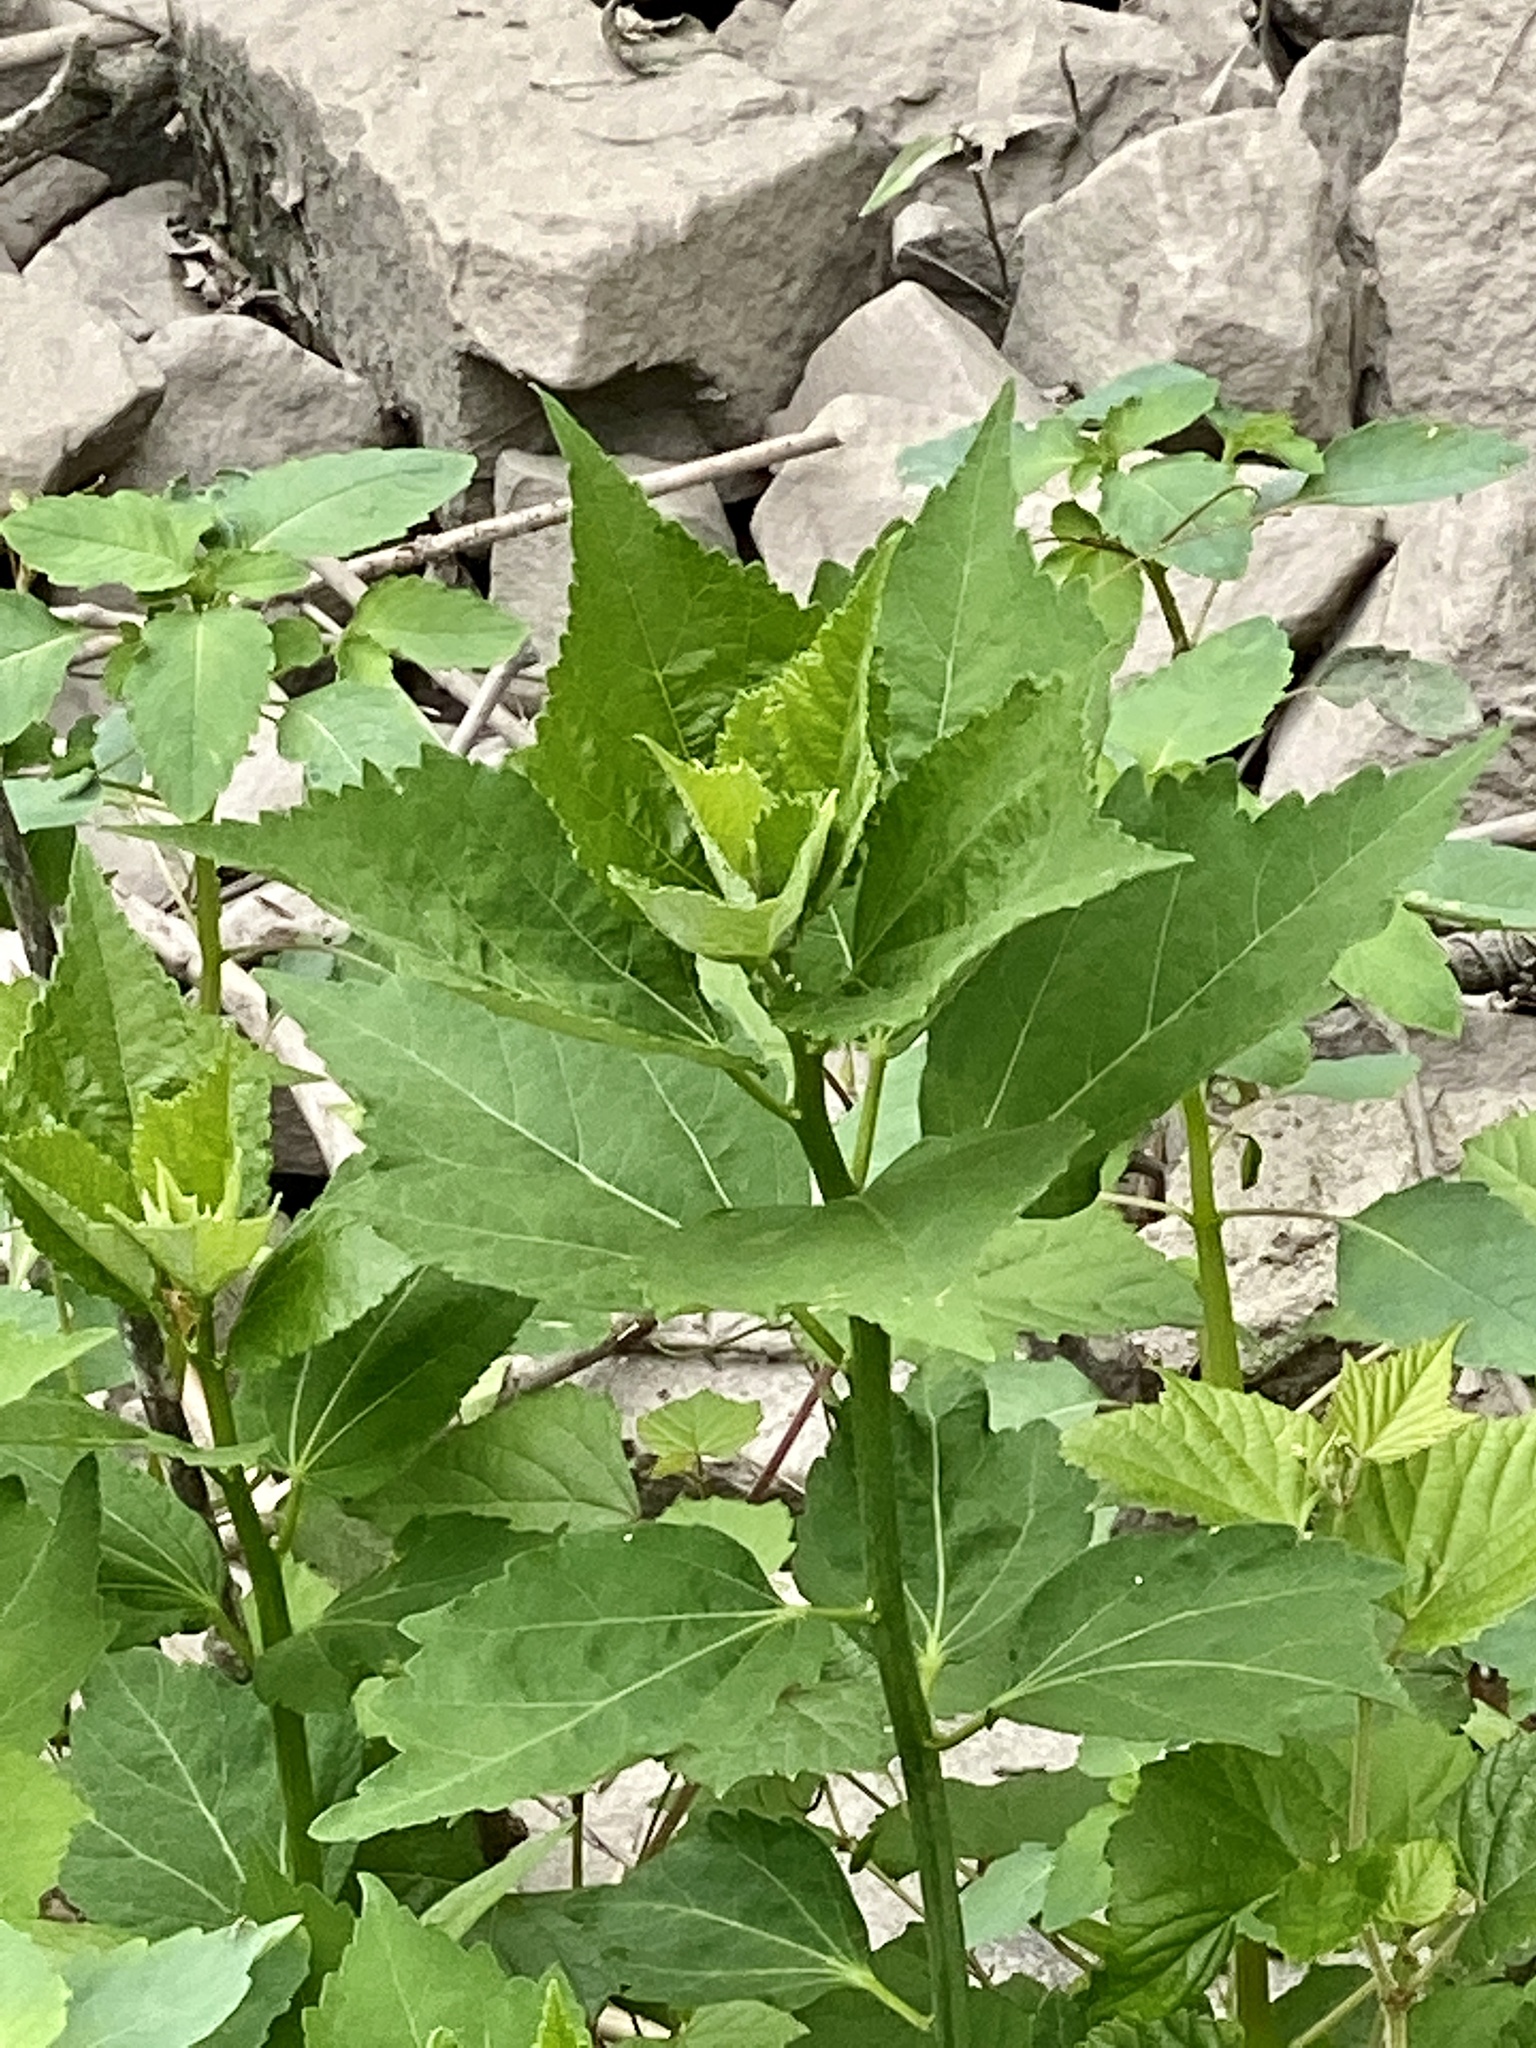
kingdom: Plantae
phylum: Tracheophyta
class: Magnoliopsida
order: Malvales
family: Malvaceae
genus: Hibiscus
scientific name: Hibiscus moscheutos
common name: Common rose-mallow
